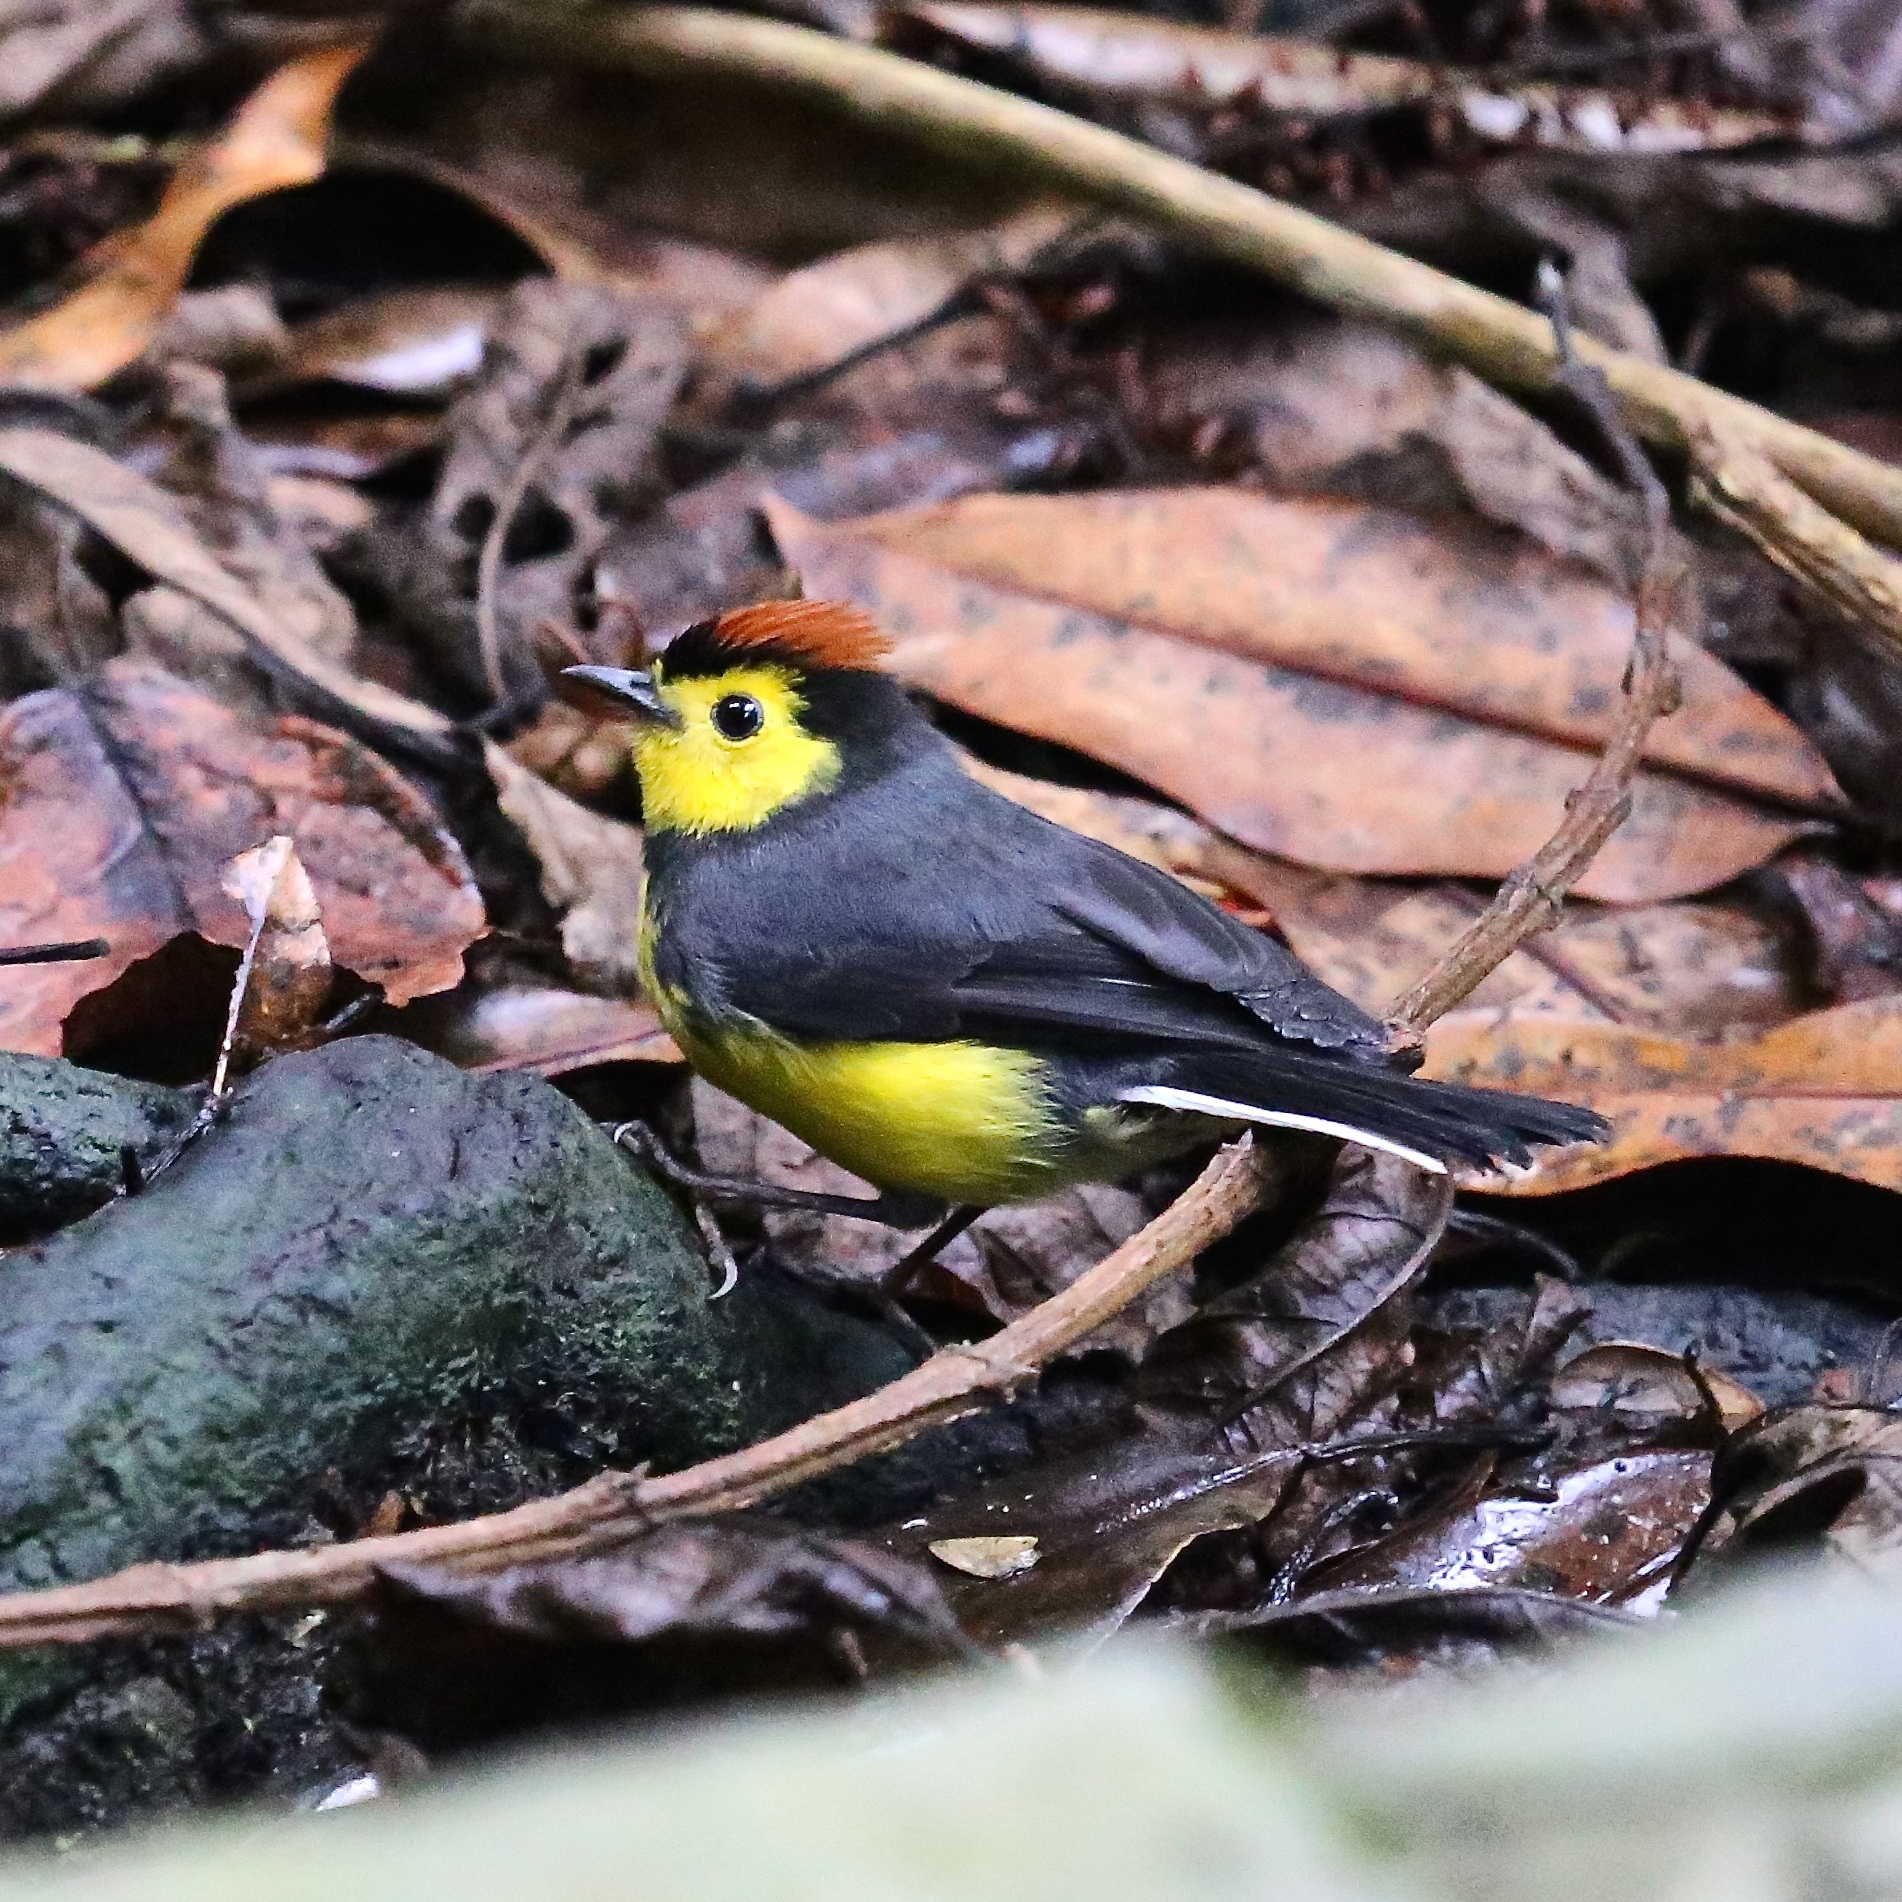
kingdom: Animalia
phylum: Chordata
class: Aves
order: Passeriformes
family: Parulidae
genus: Myioborus
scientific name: Myioborus torquatus
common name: Collared whitestart
